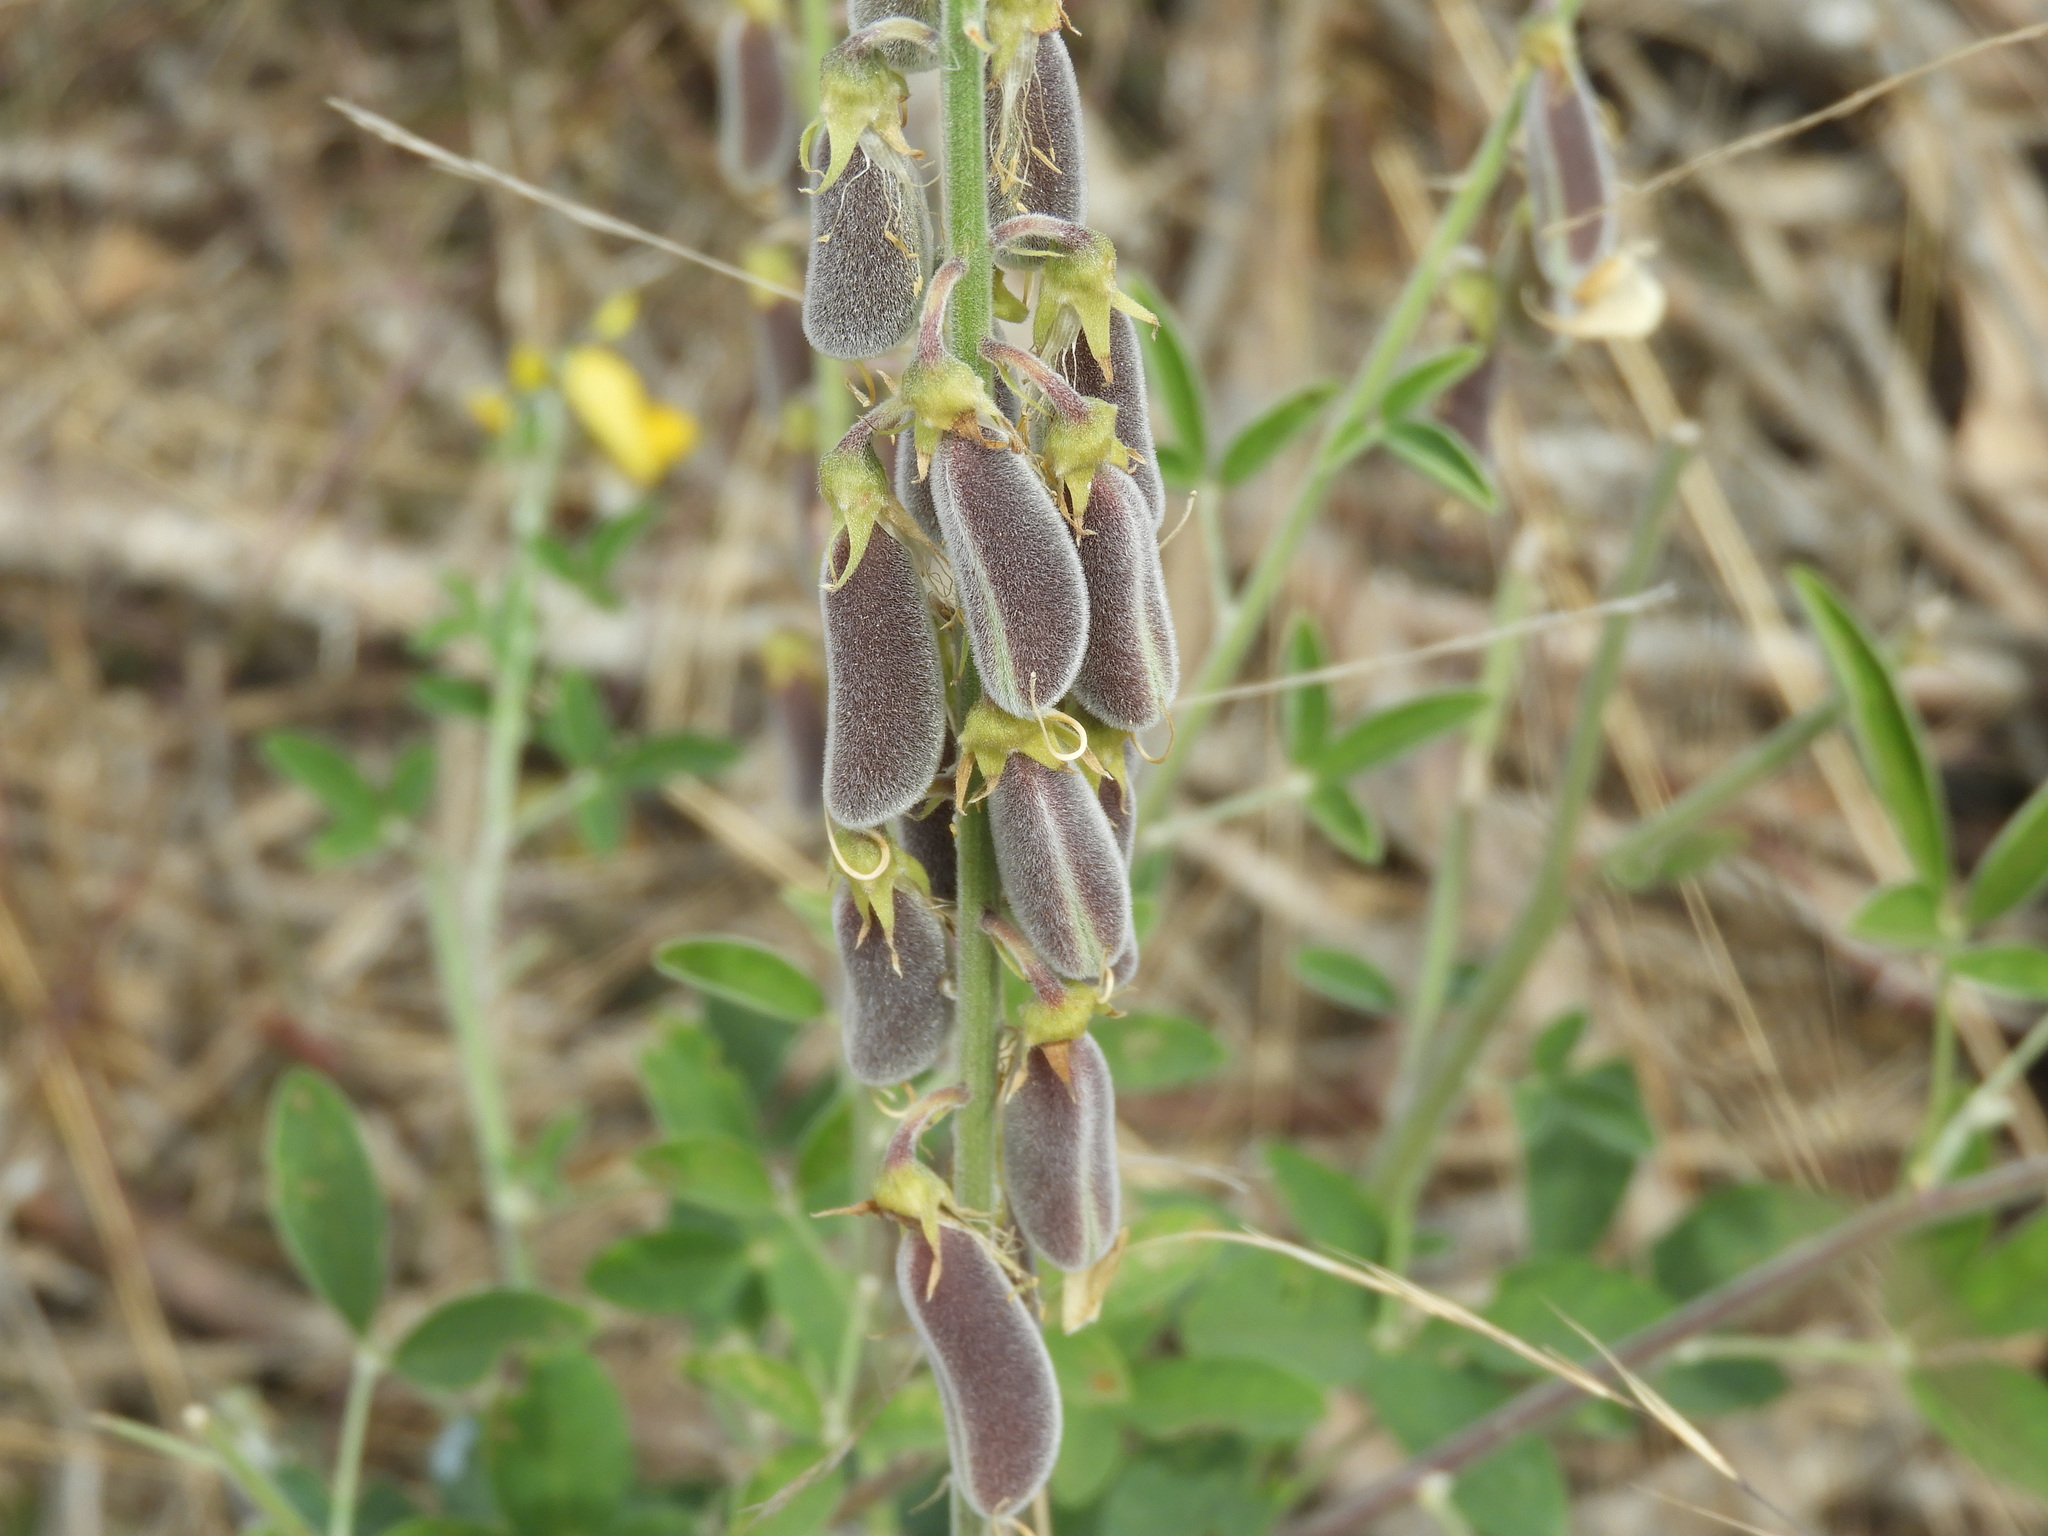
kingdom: Plantae
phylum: Tracheophyta
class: Magnoliopsida
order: Fabales
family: Fabaceae
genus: Crotalaria
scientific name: Crotalaria pumila
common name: Low rattlebox
